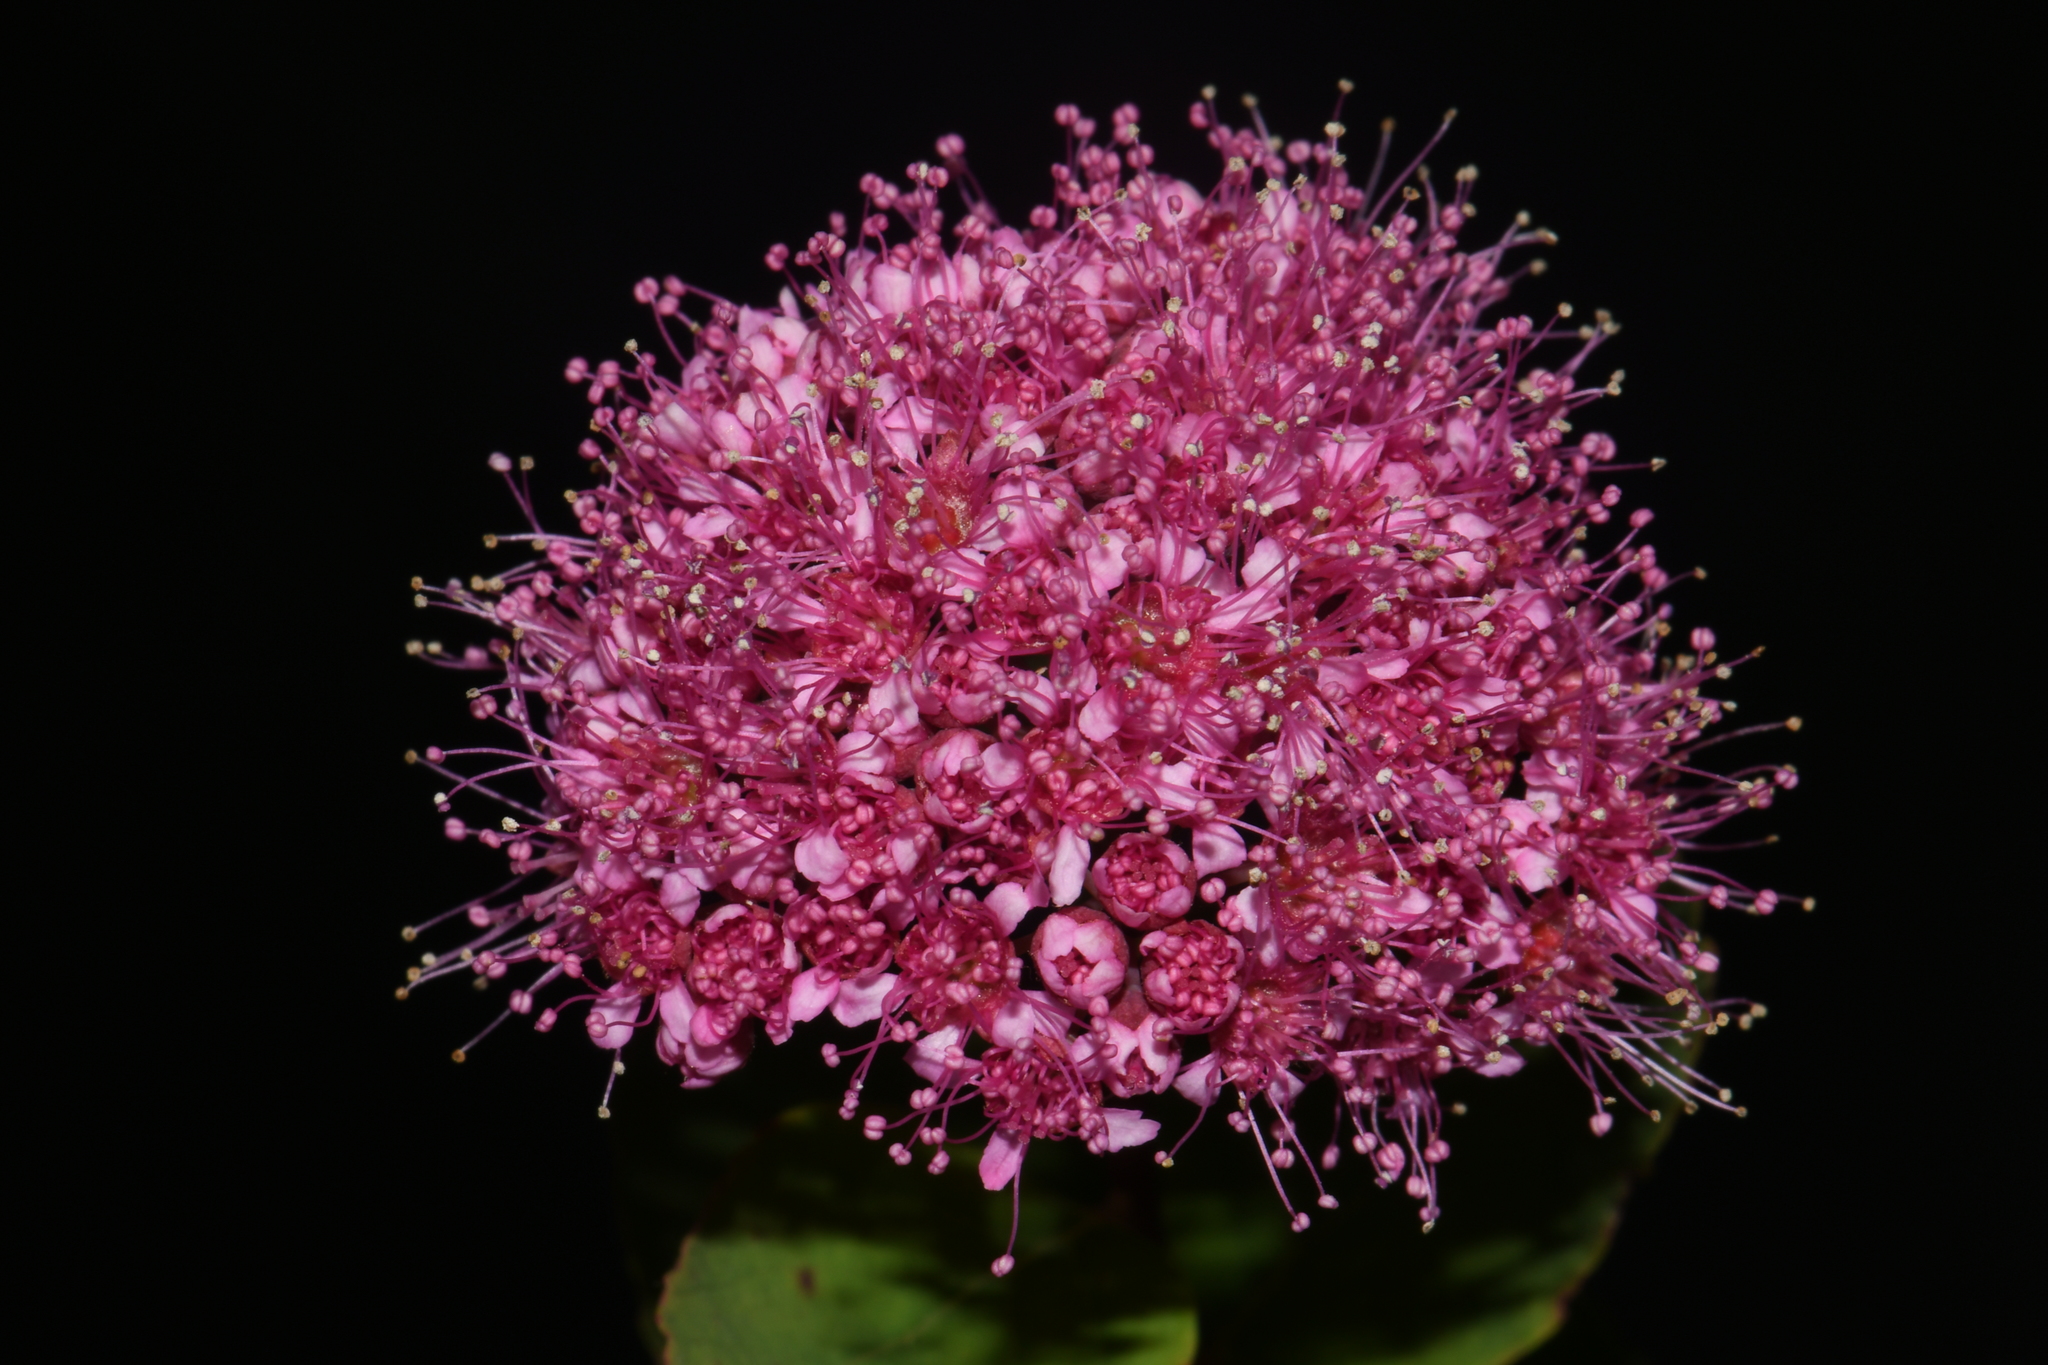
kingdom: Plantae
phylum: Tracheophyta
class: Magnoliopsida
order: Rosales
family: Rosaceae
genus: Spiraea
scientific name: Spiraea splendens
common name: Subalpine meadowsweet
